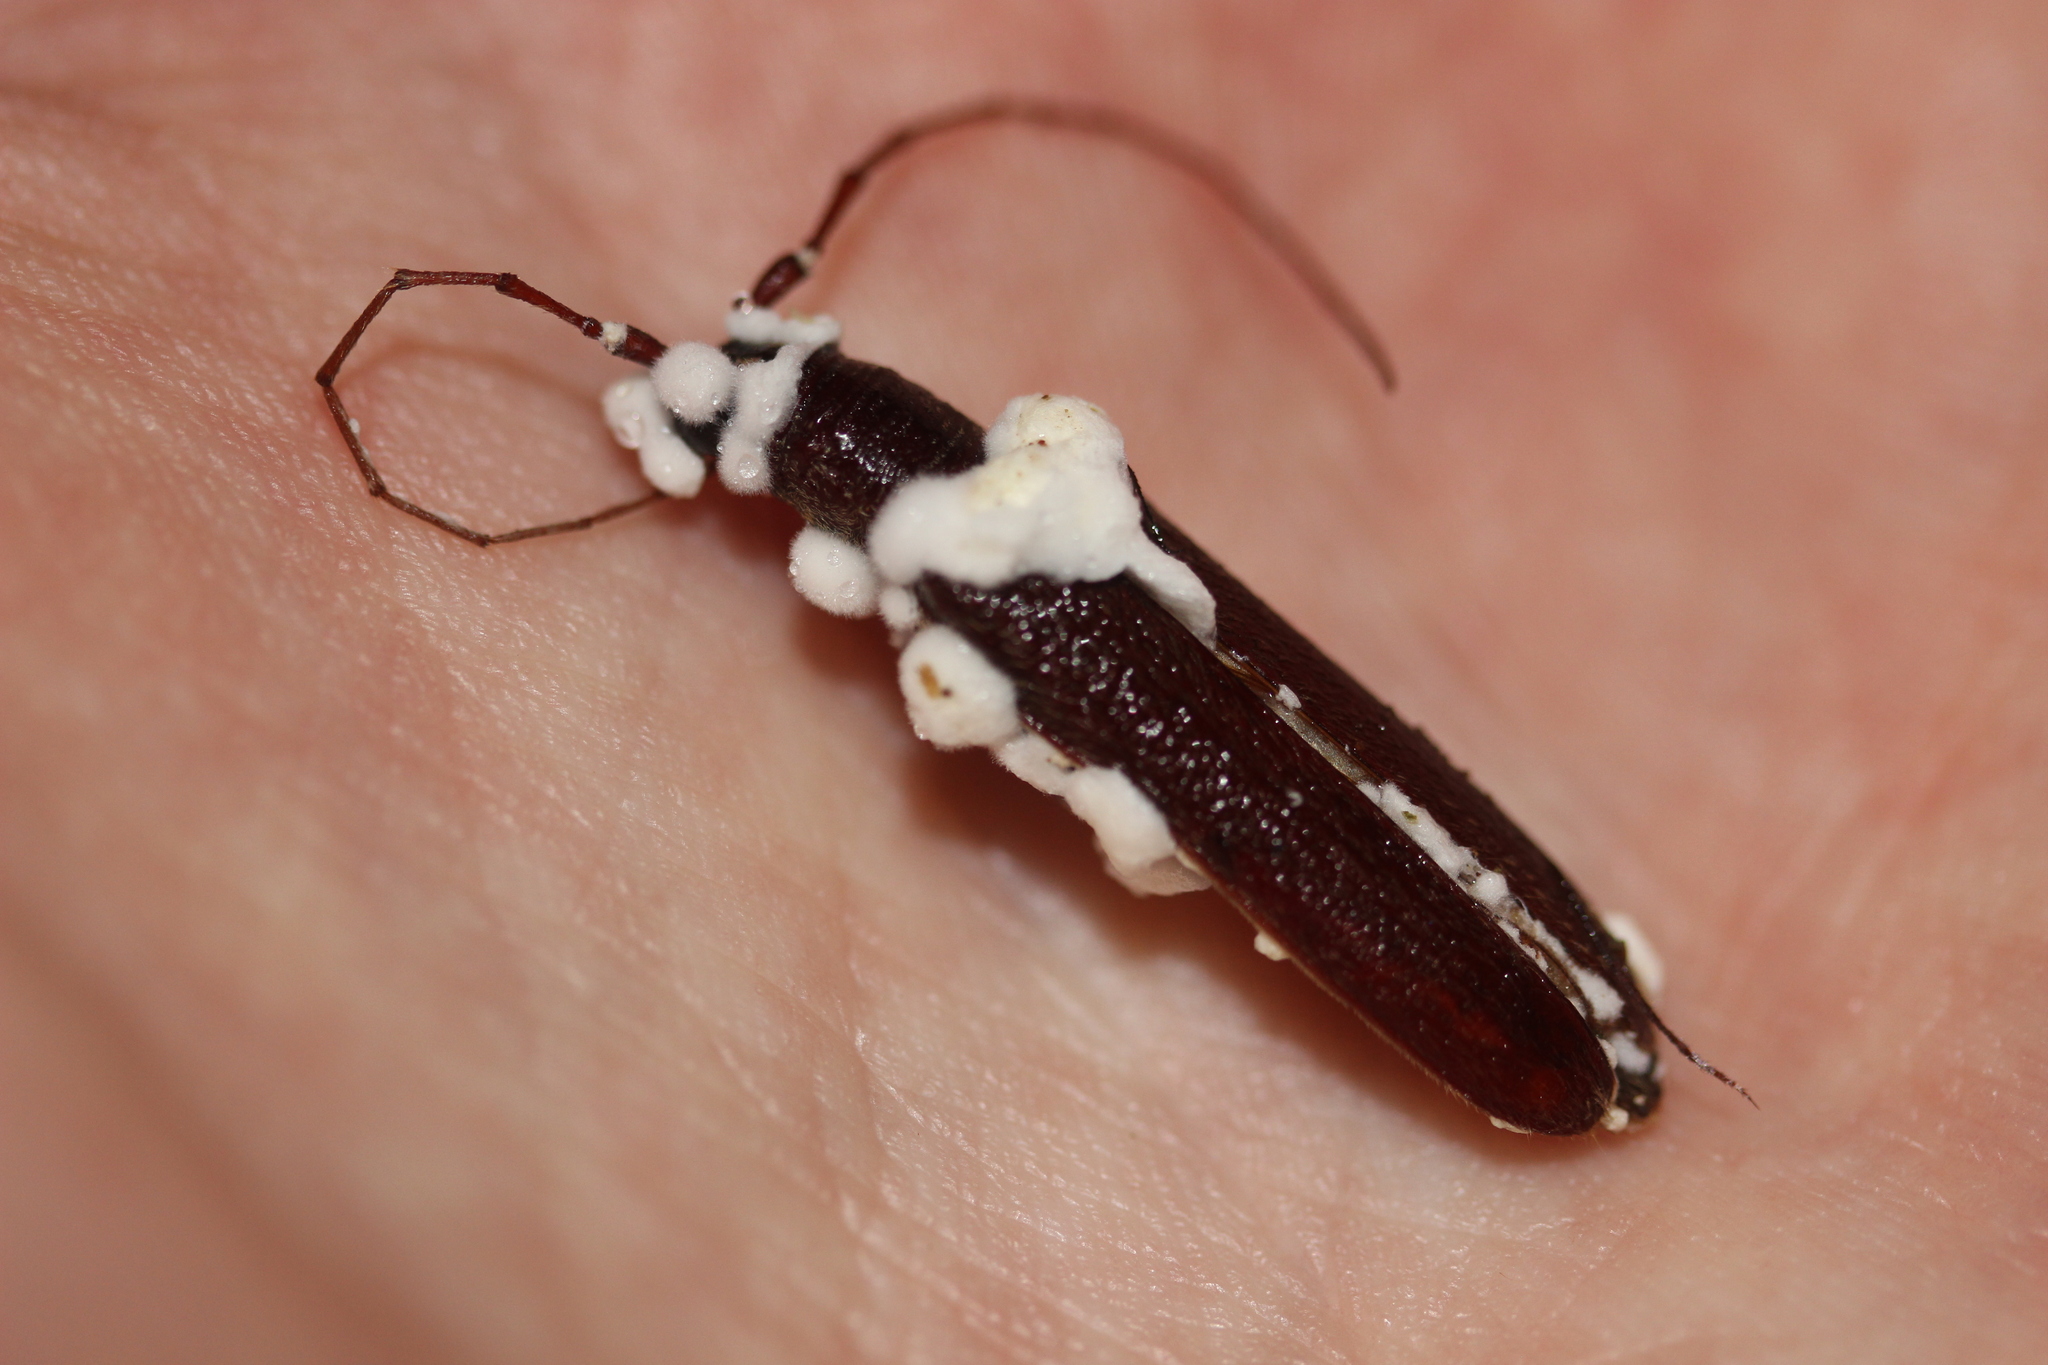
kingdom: Fungi
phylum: Ascomycota
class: Sordariomycetes
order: Hypocreales
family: Cordycipitaceae
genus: Beauveria
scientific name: Beauveria pseudobassiana
